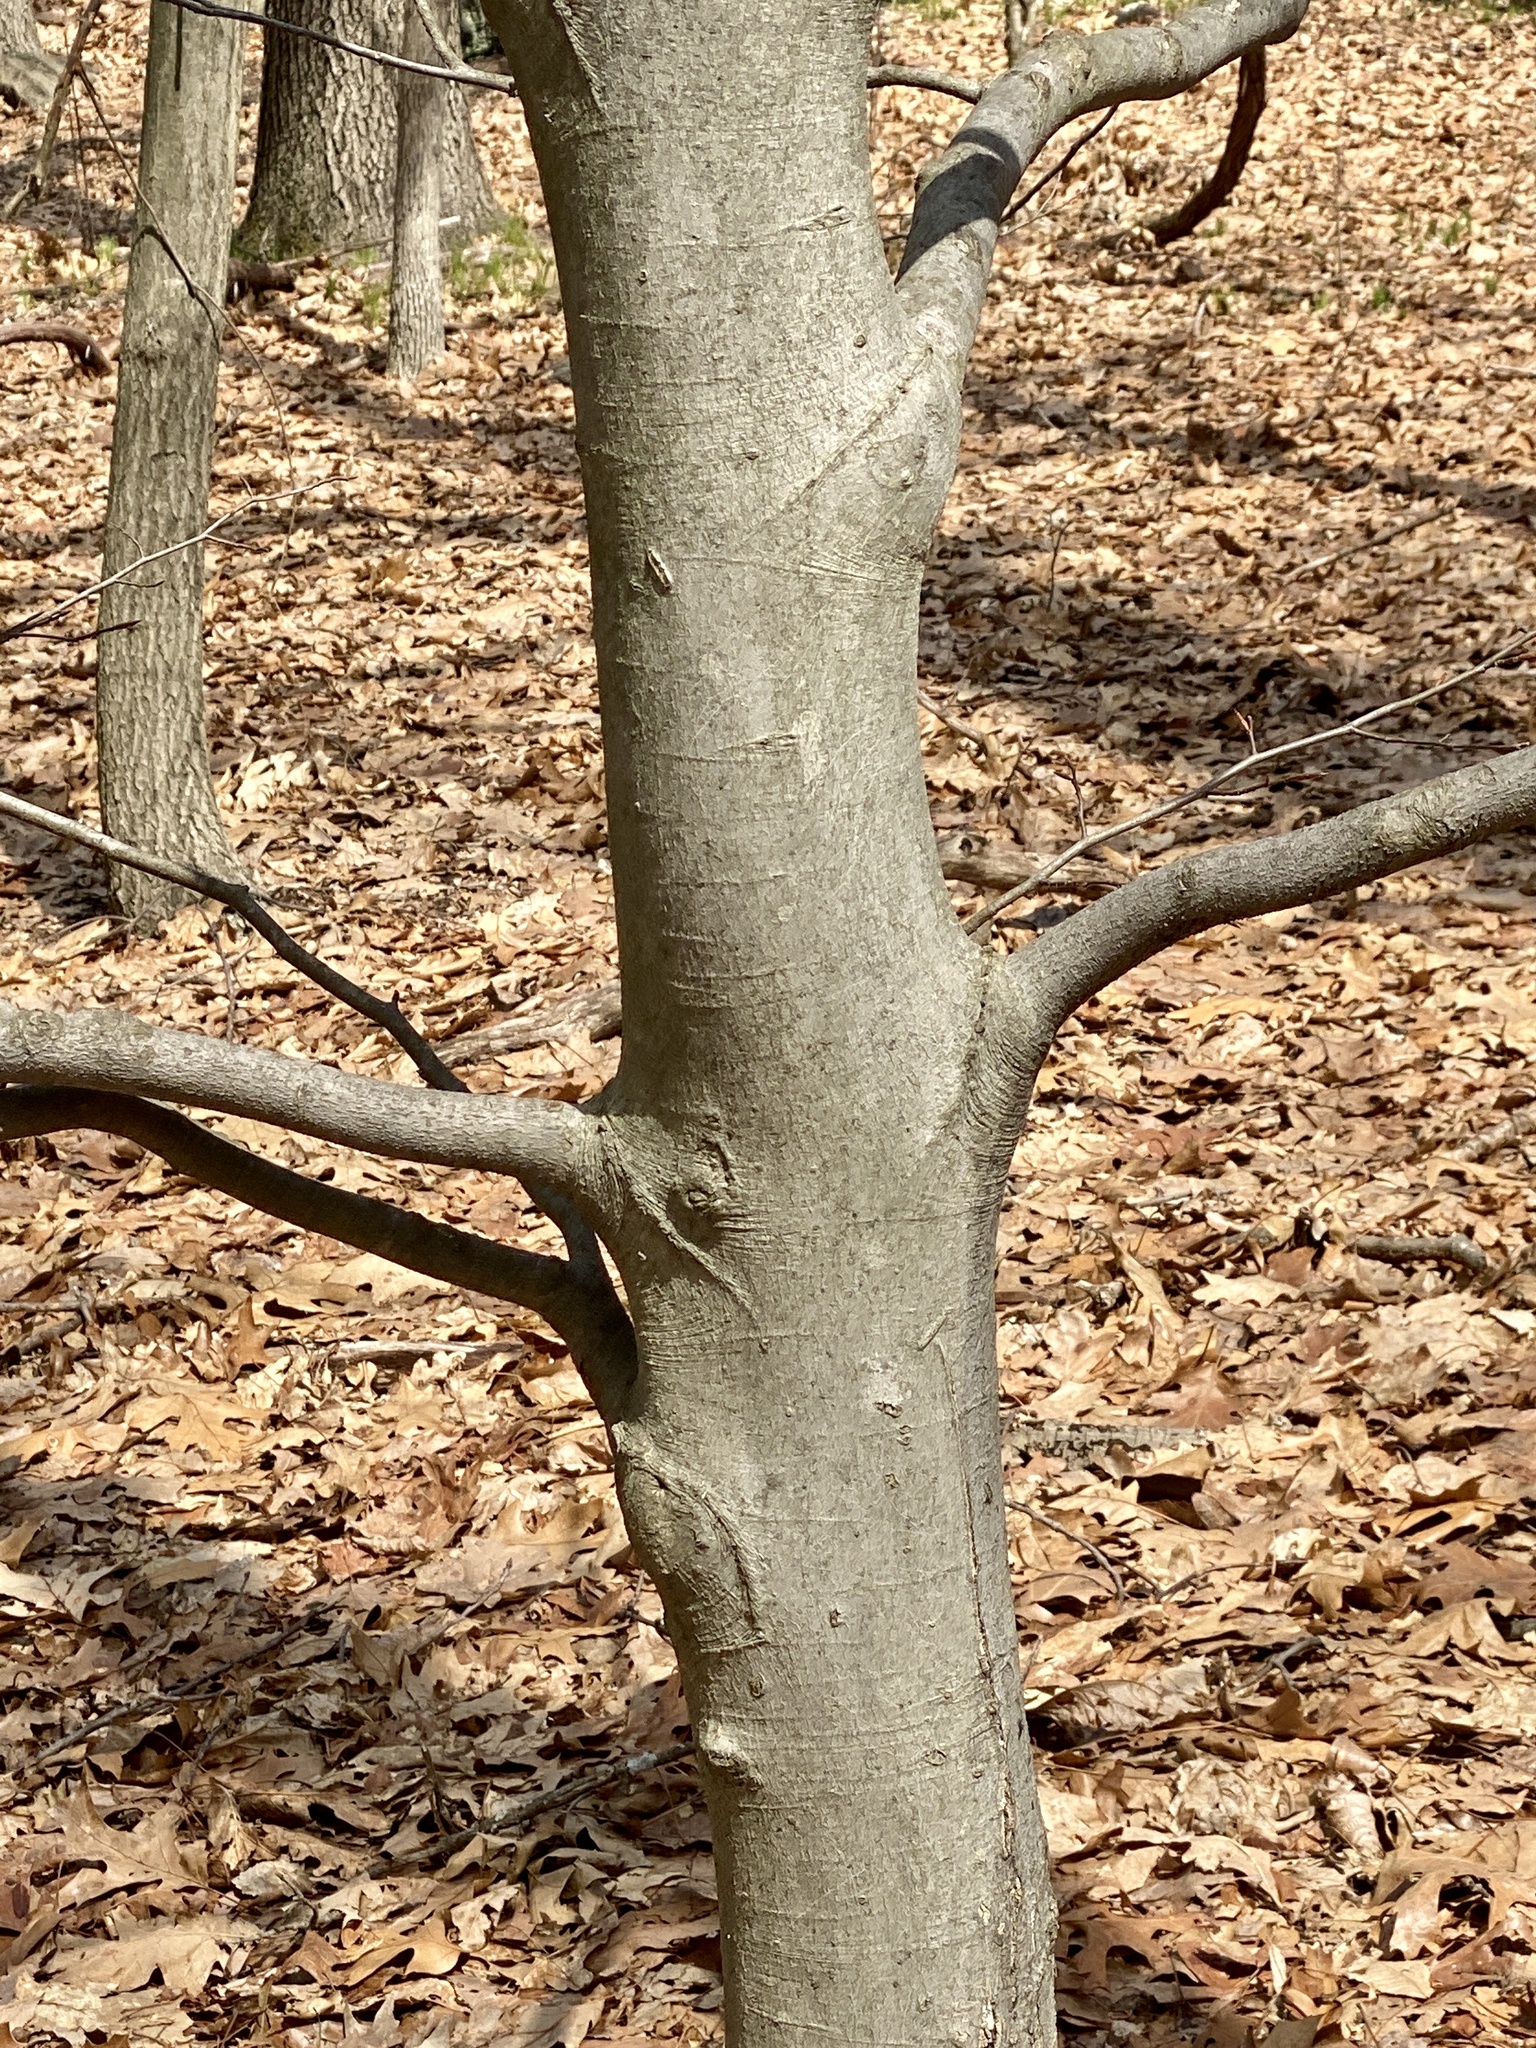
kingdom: Plantae
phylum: Tracheophyta
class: Magnoliopsida
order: Fagales
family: Fagaceae
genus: Fagus
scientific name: Fagus grandifolia
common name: American beech
